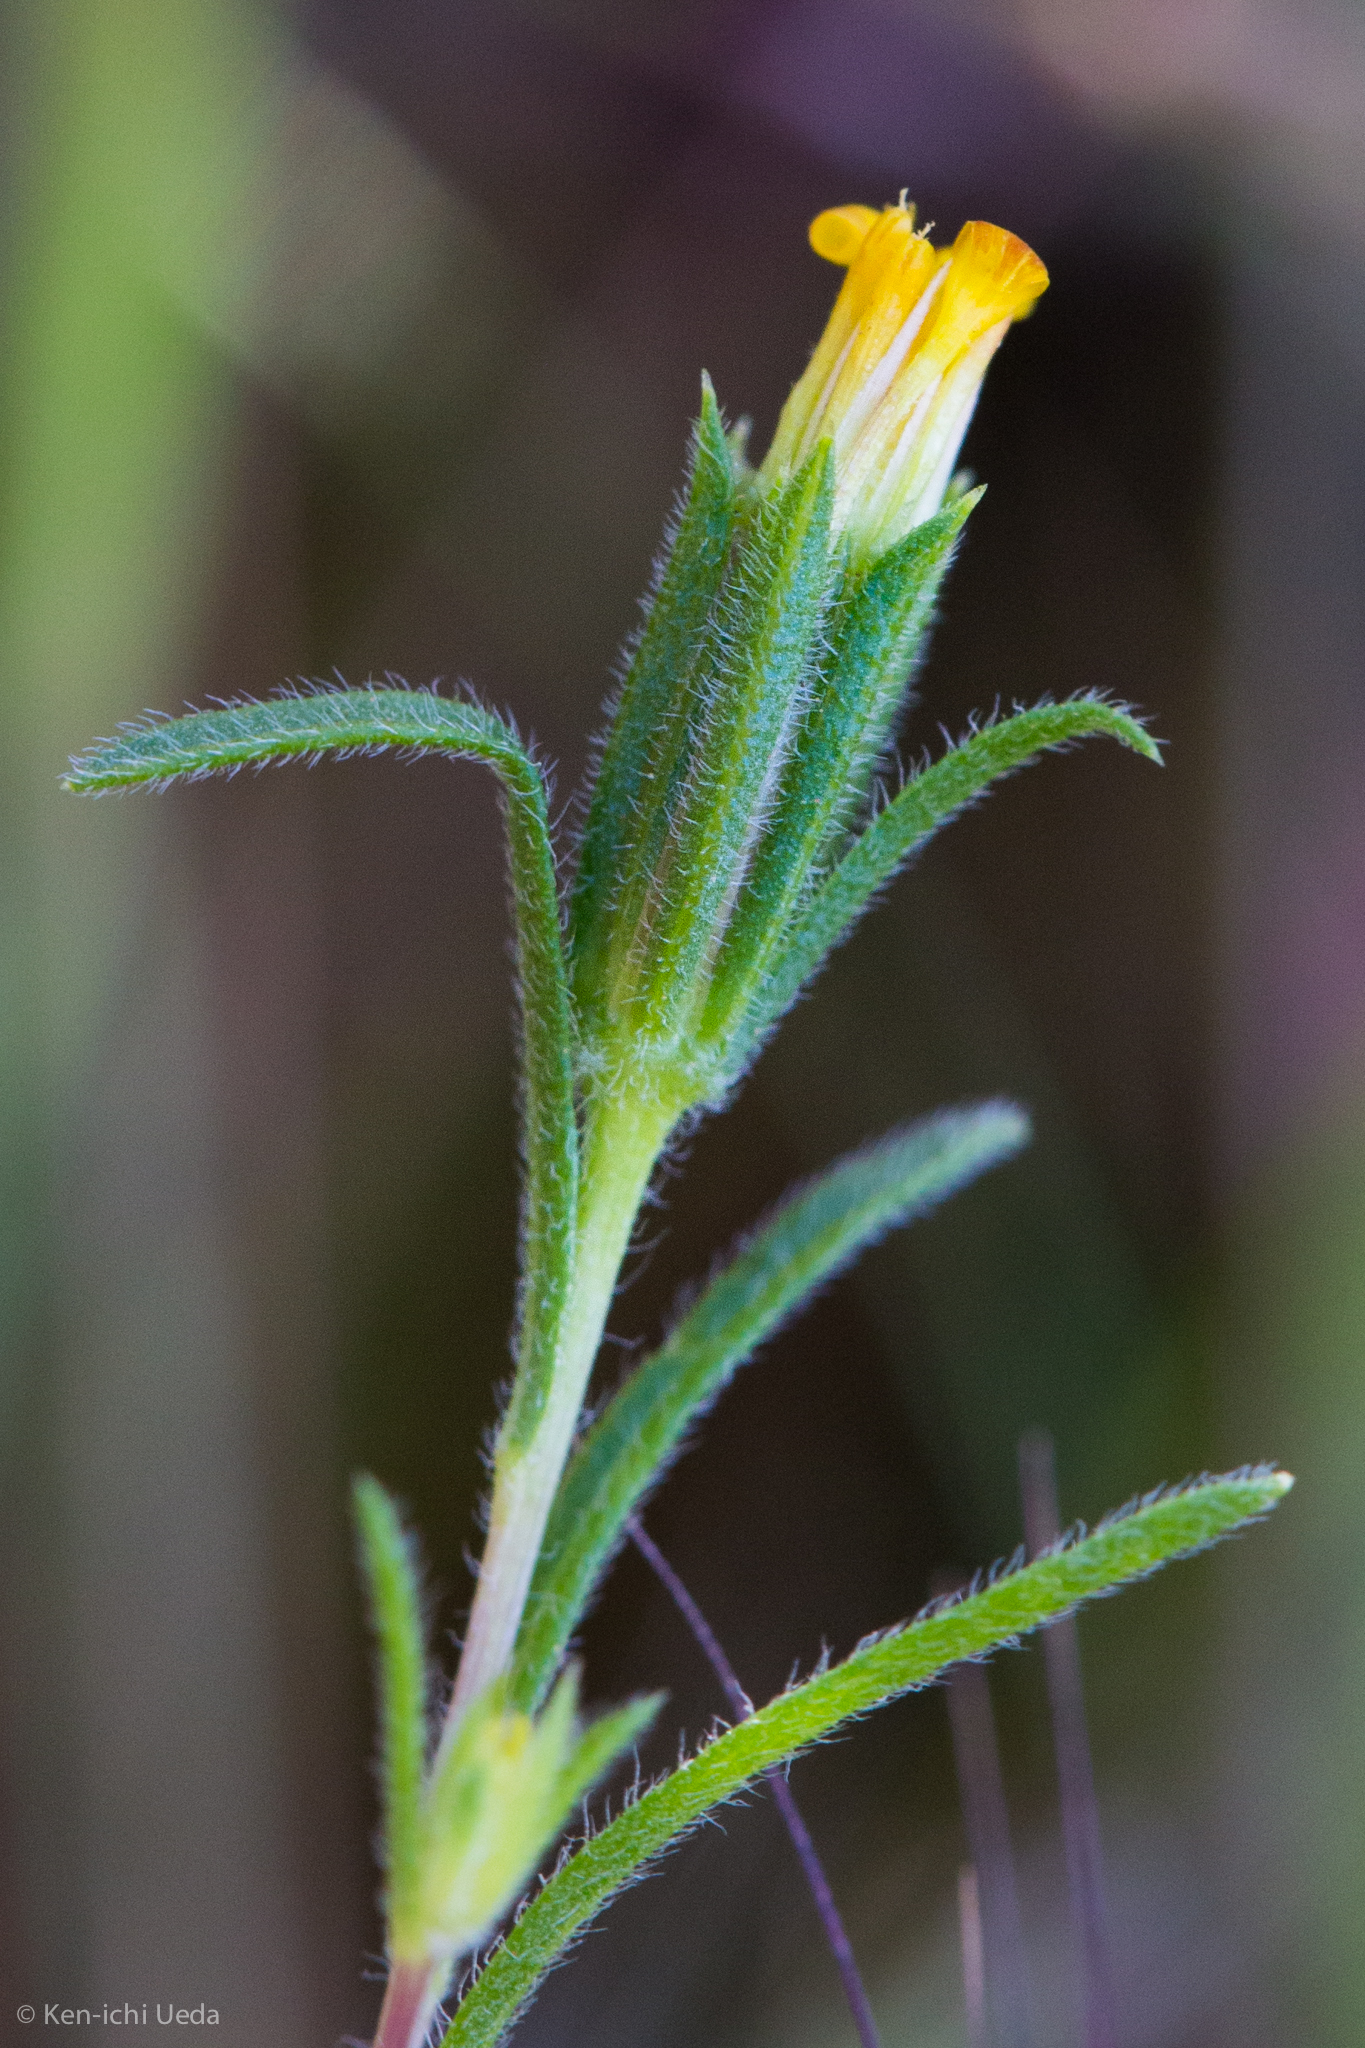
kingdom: Plantae
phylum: Tracheophyta
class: Magnoliopsida
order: Asterales
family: Asteraceae
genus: Rigiopappus
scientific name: Rigiopappus leptocladus
